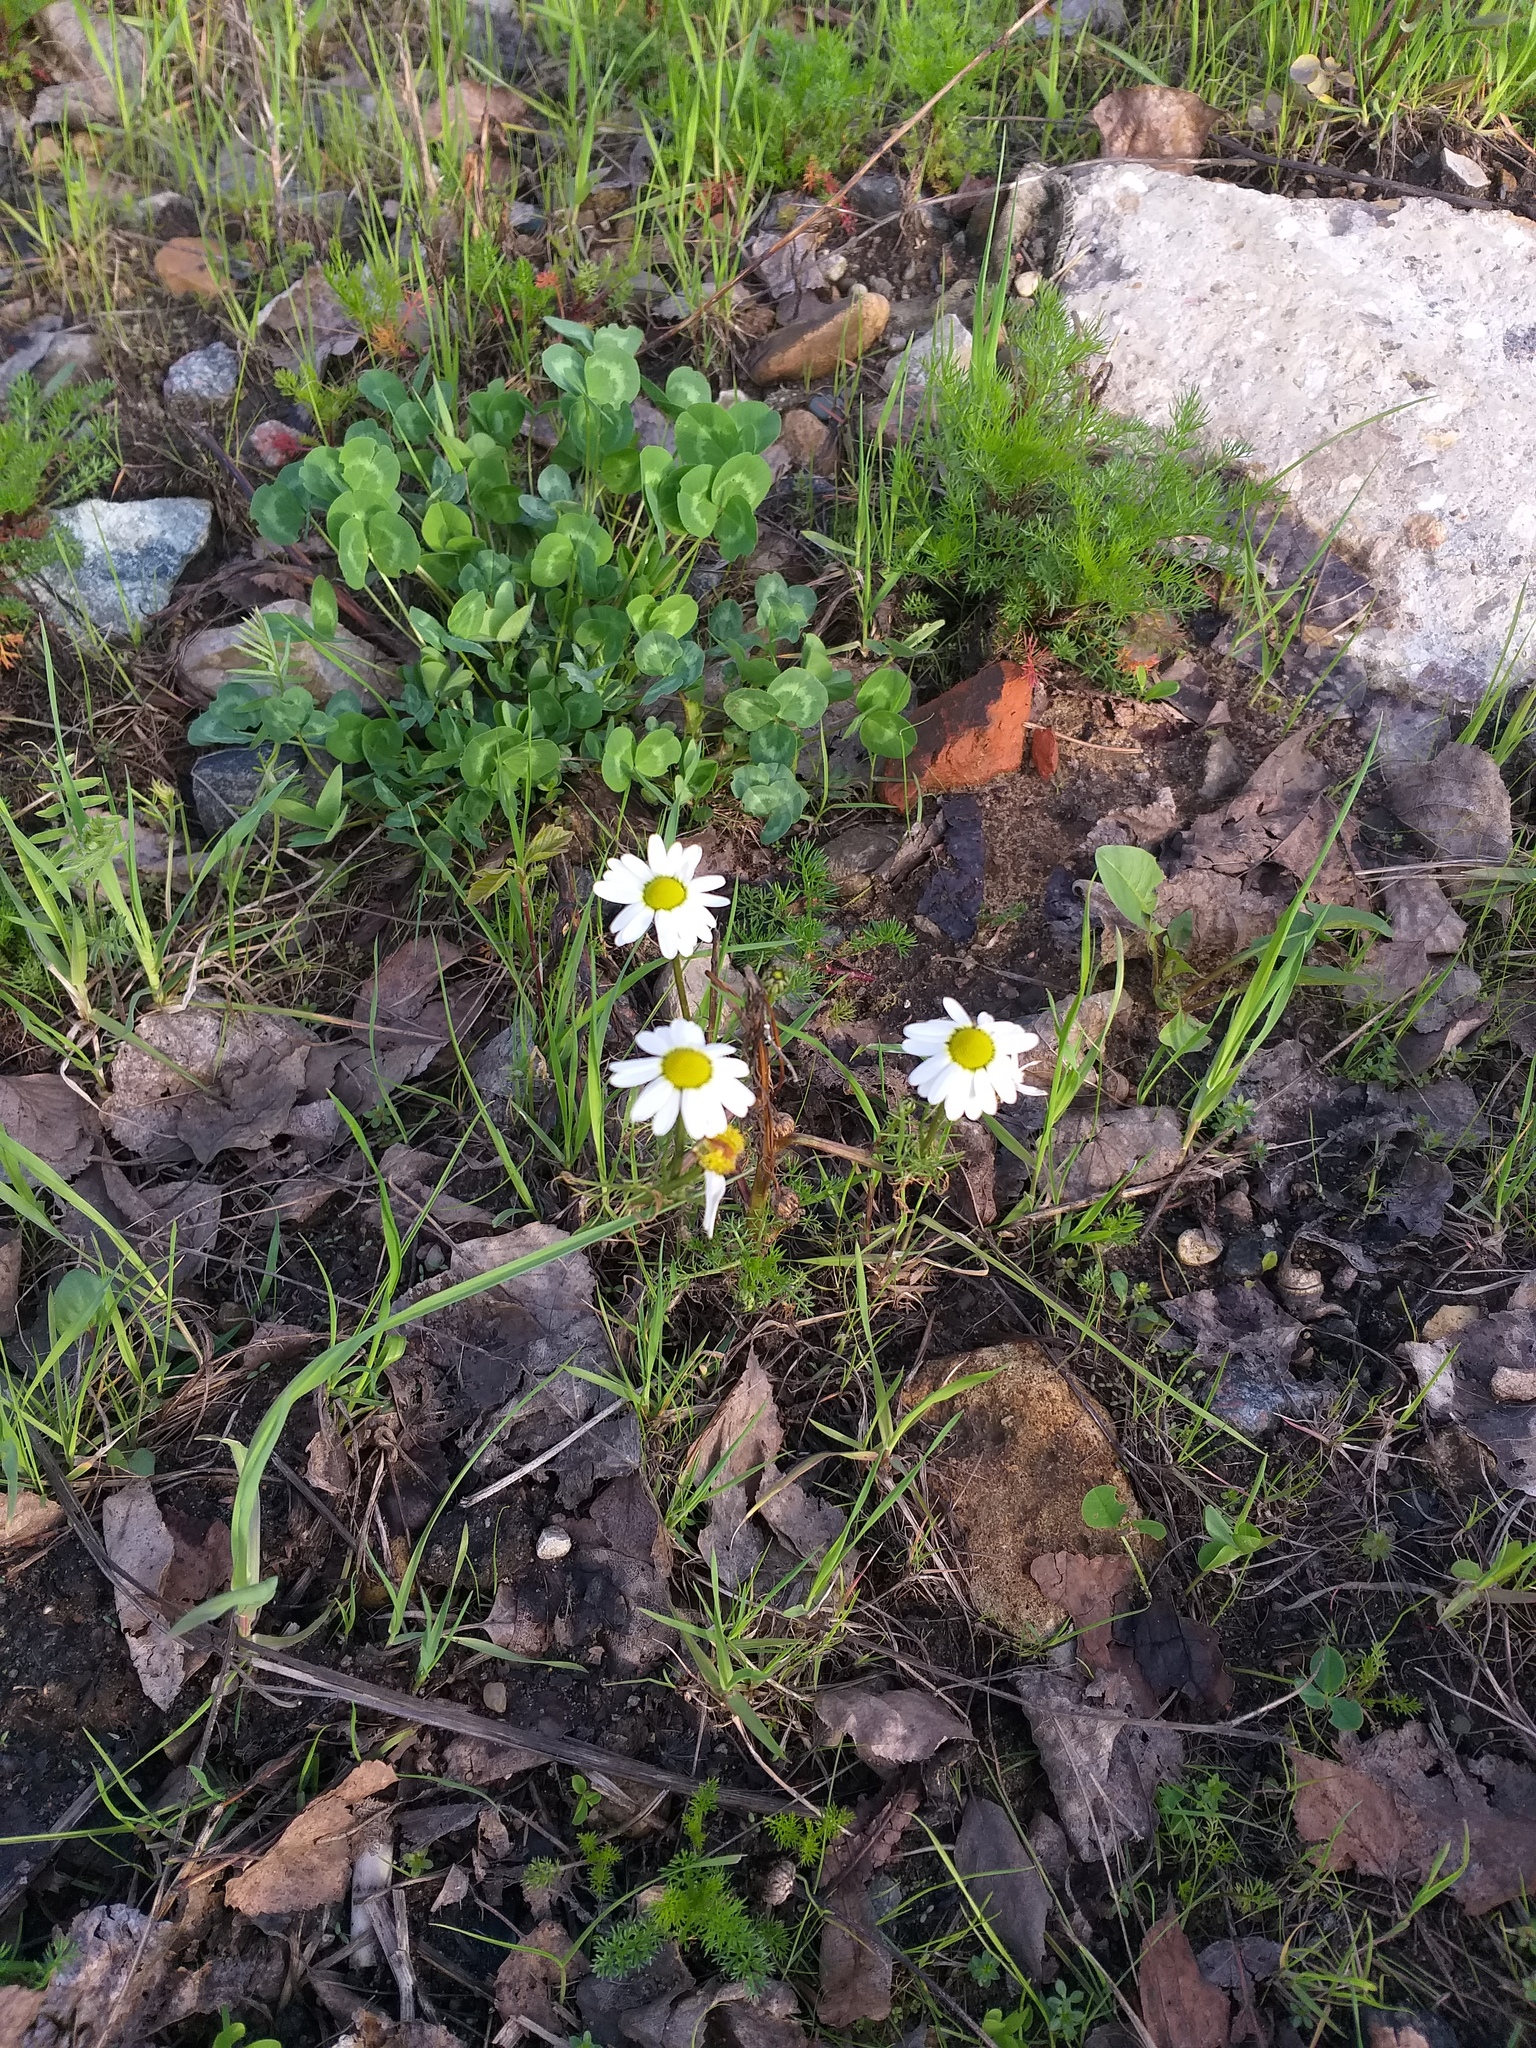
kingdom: Plantae
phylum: Tracheophyta
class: Magnoliopsida
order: Asterales
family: Asteraceae
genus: Tripleurospermum
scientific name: Tripleurospermum inodorum
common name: Scentless mayweed
